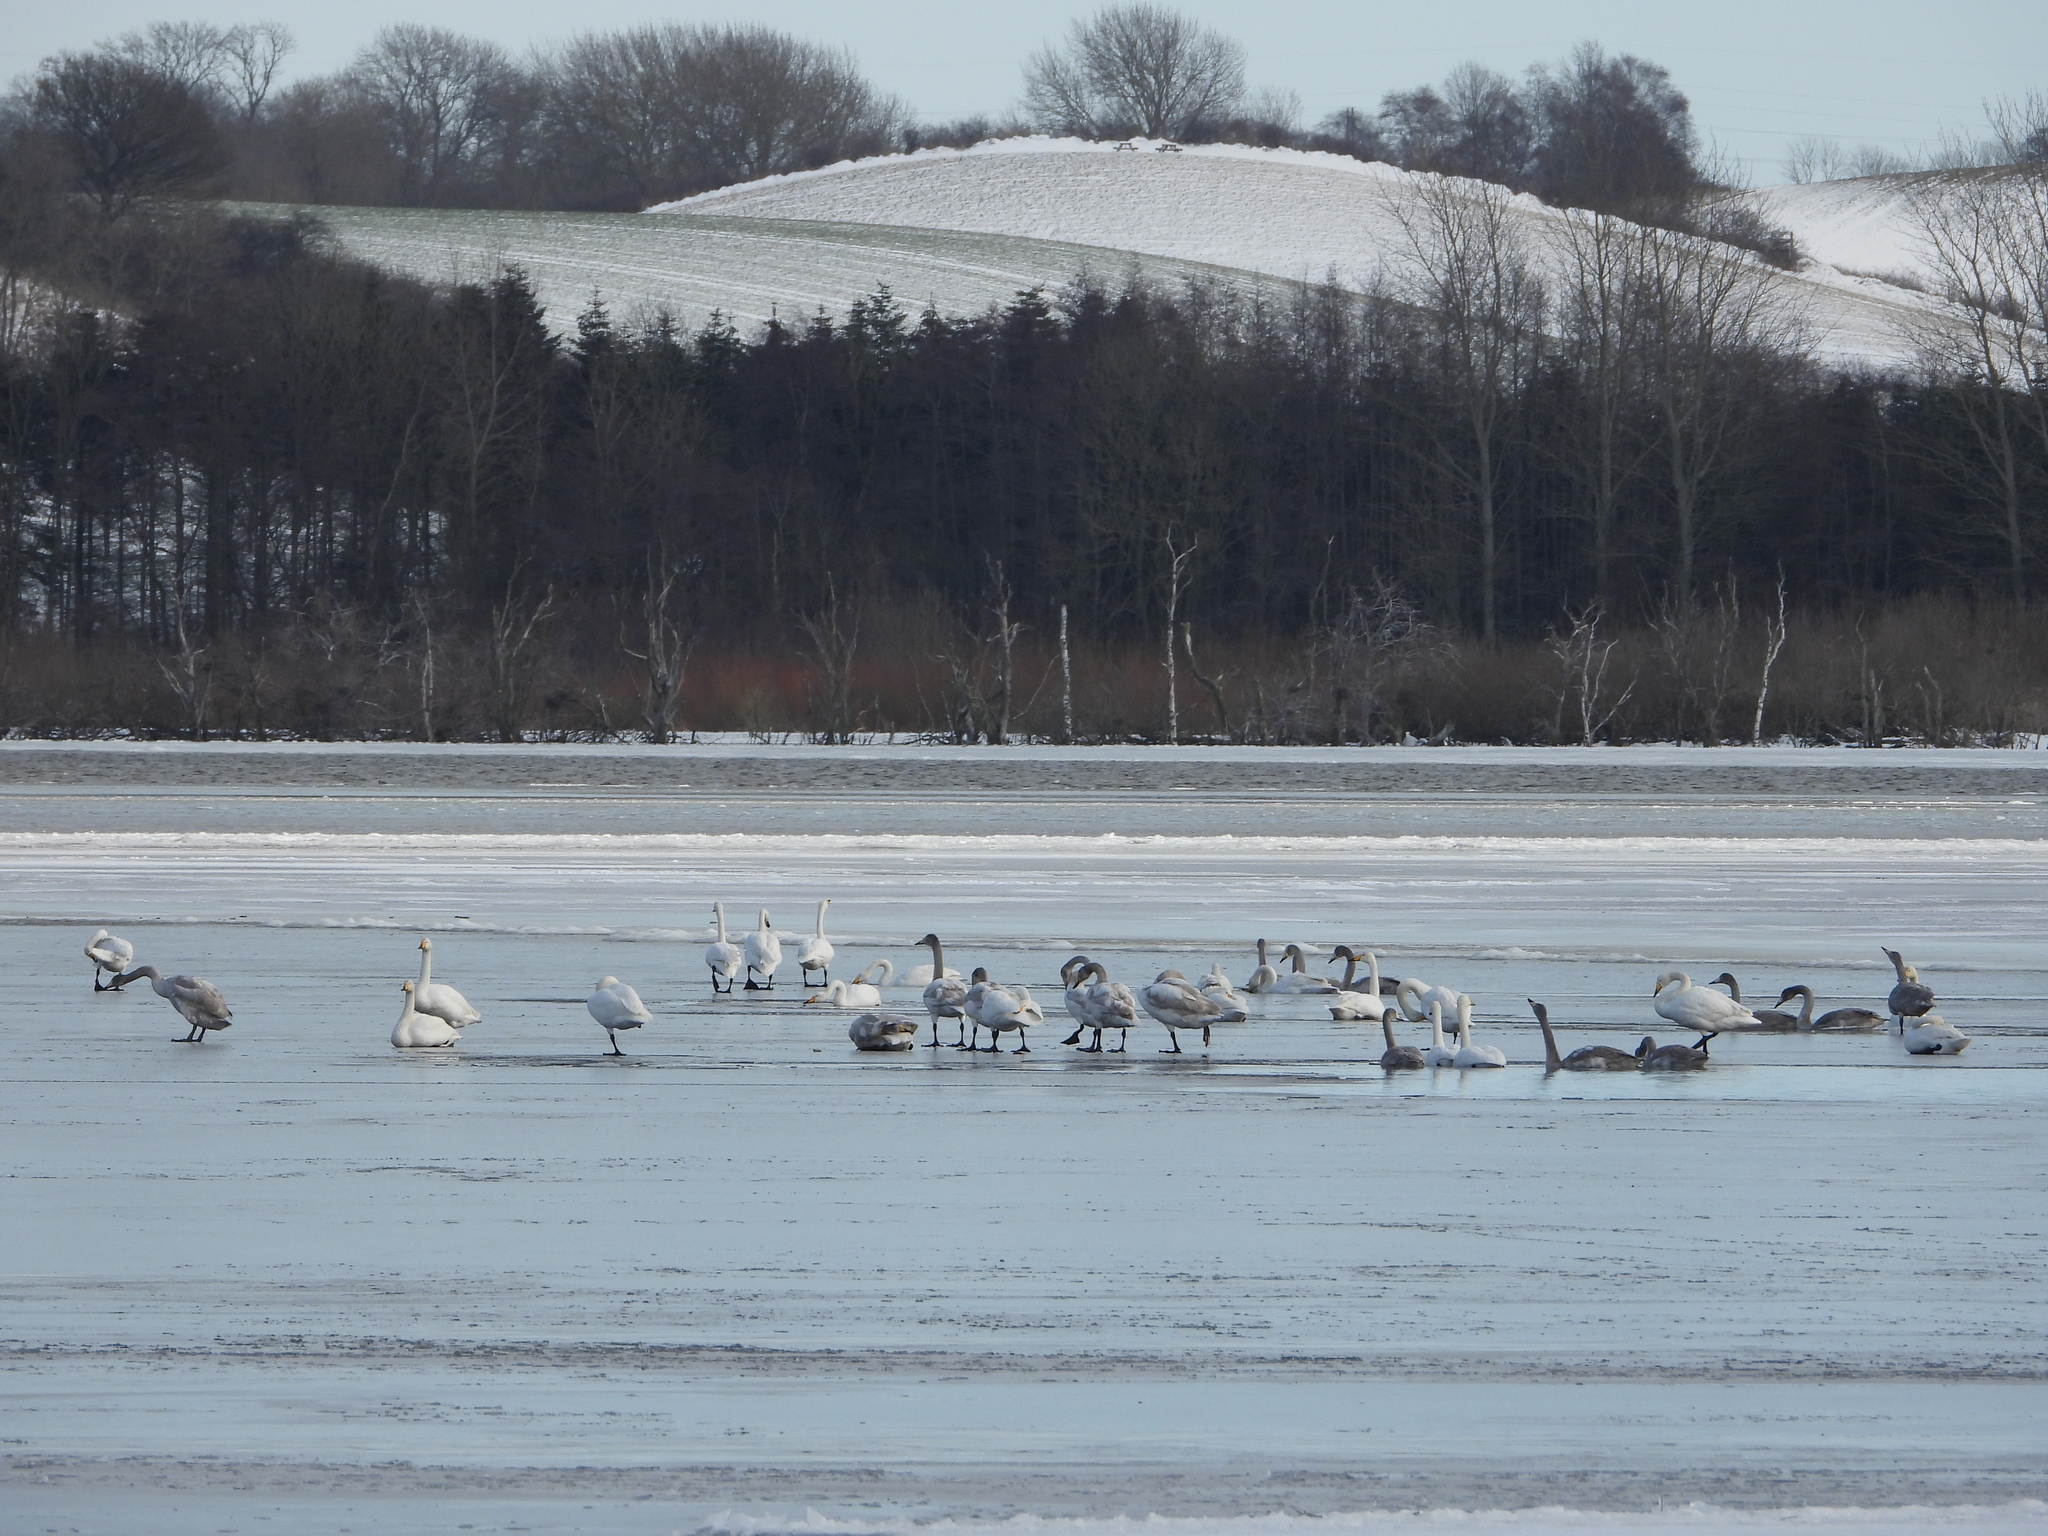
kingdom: Animalia
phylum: Chordata
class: Aves
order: Anseriformes
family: Anatidae
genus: Cygnus
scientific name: Cygnus cygnus
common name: Whooper swan
